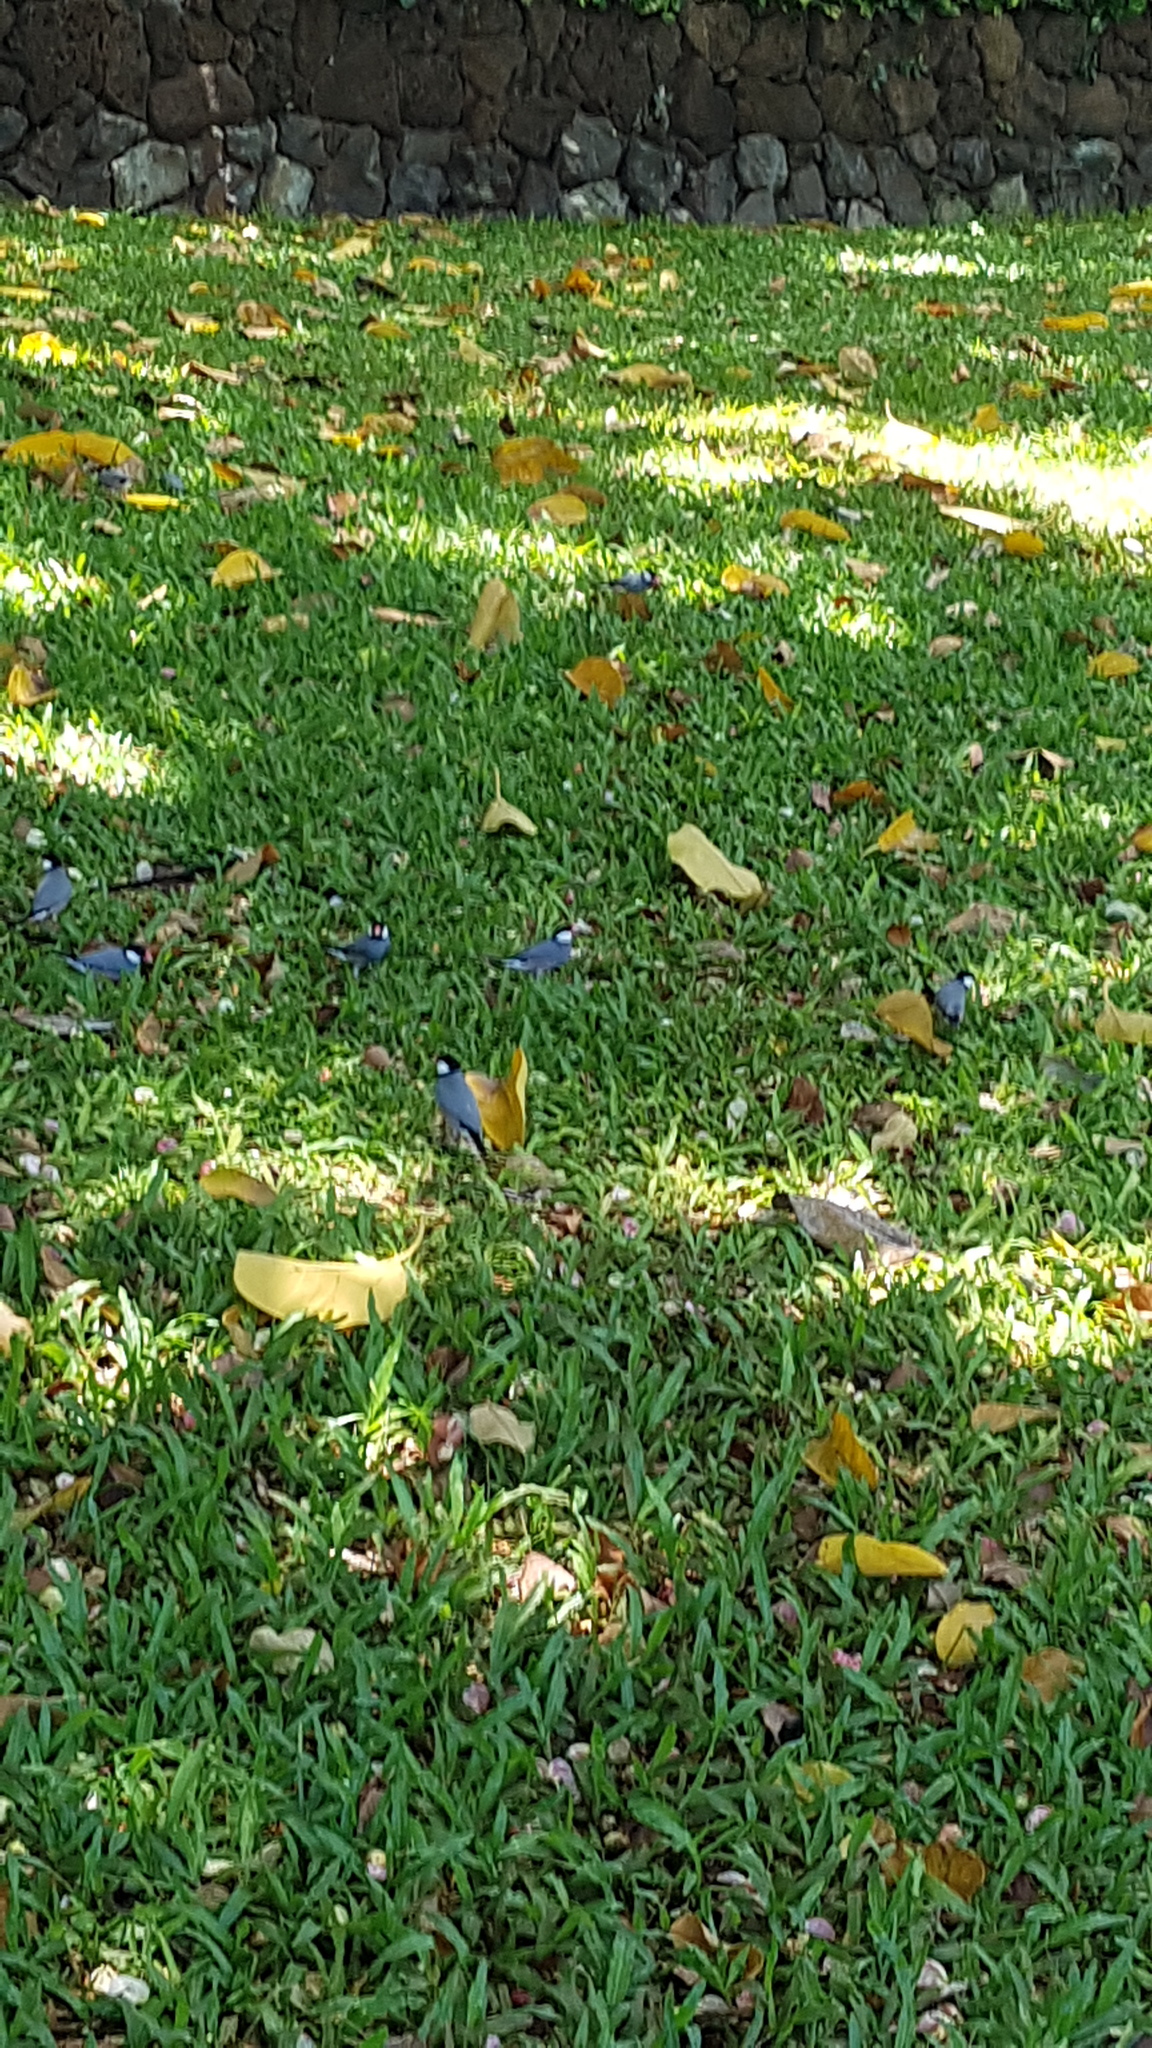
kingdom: Animalia
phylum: Chordata
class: Aves
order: Passeriformes
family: Estrildidae
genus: Lonchura
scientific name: Lonchura oryzivora
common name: Java sparrow
